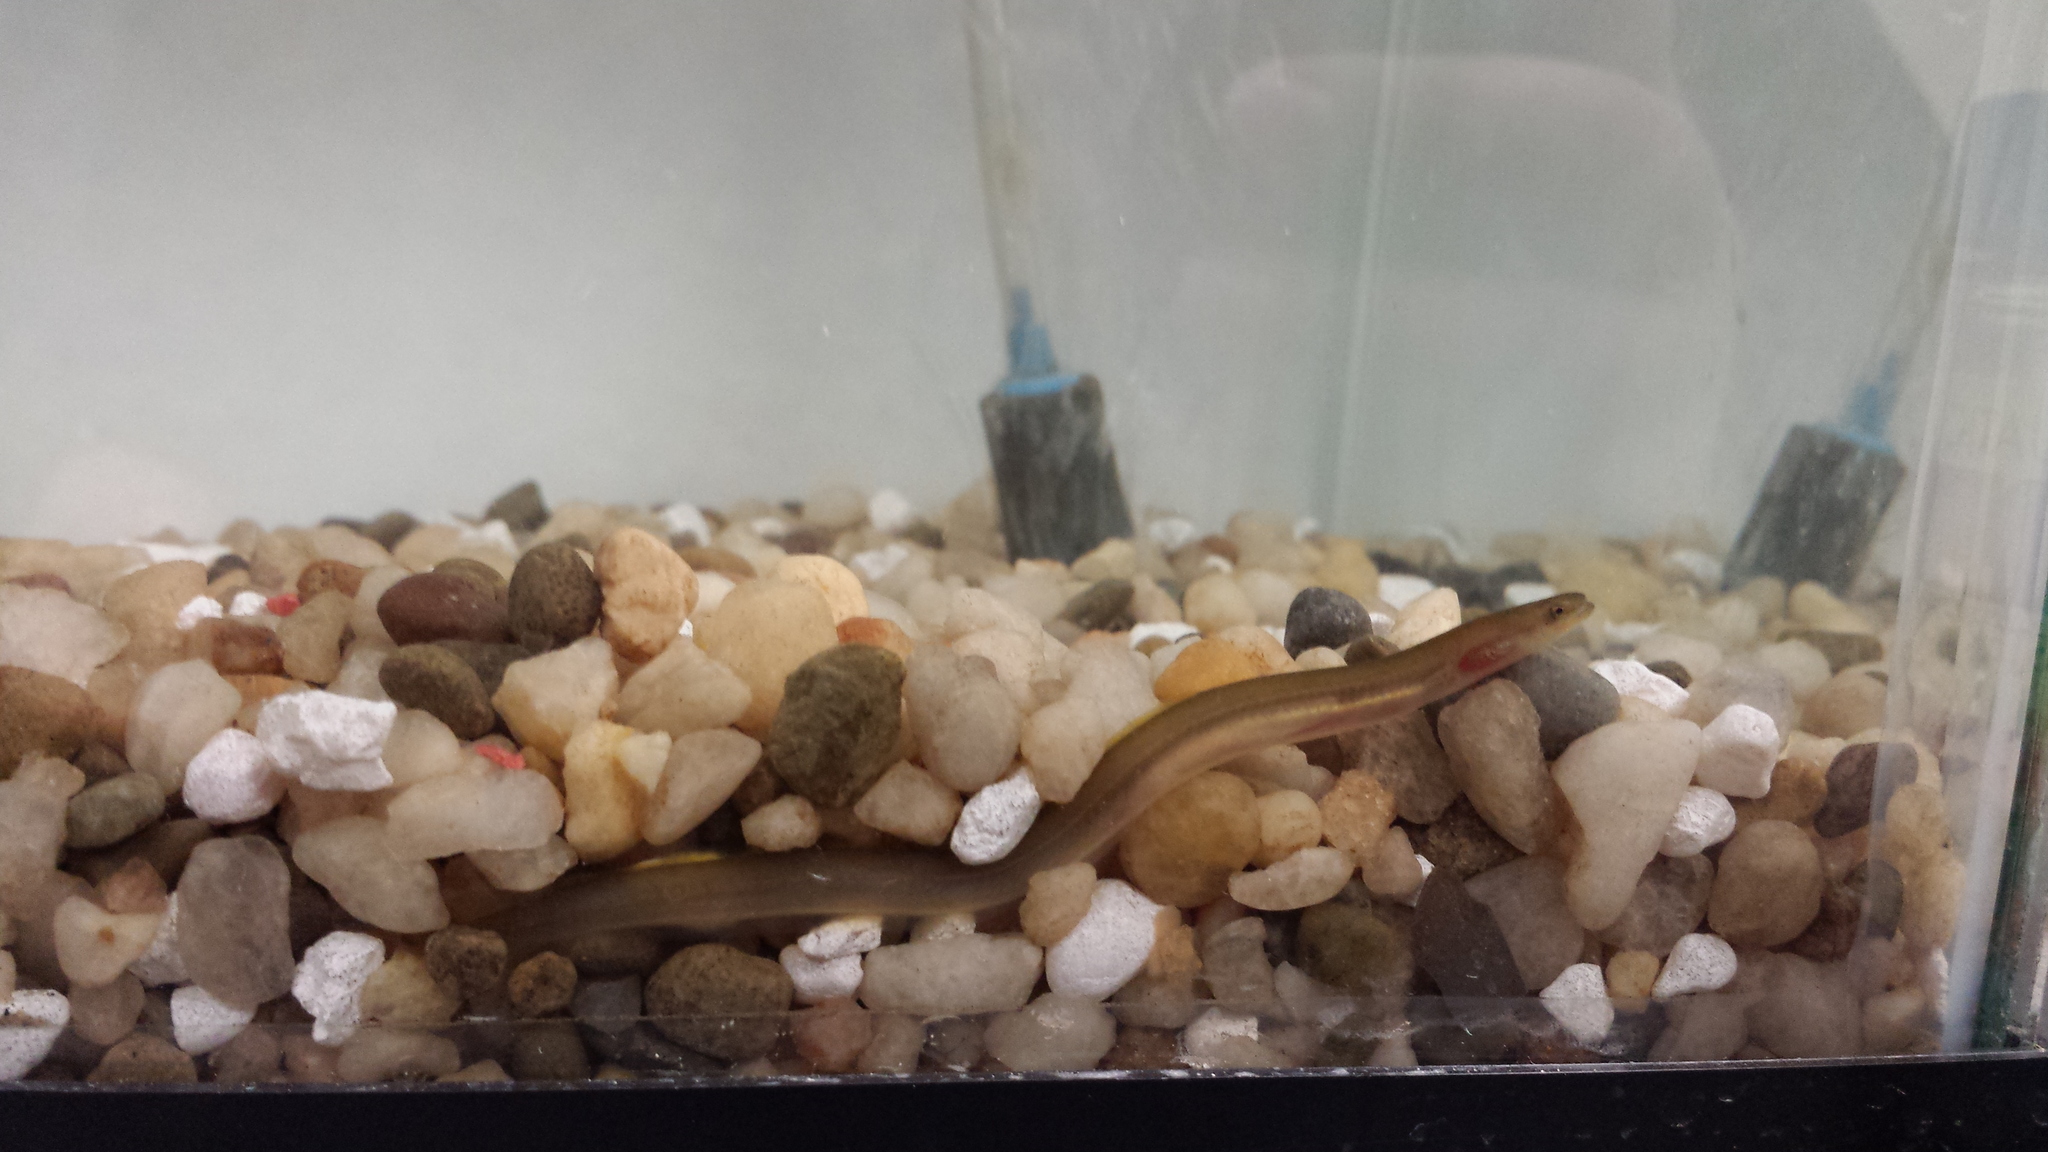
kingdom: Animalia
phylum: Chordata
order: Anguilliformes
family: Anguillidae
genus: Anguilla
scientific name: Anguilla rostrata
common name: American eel
